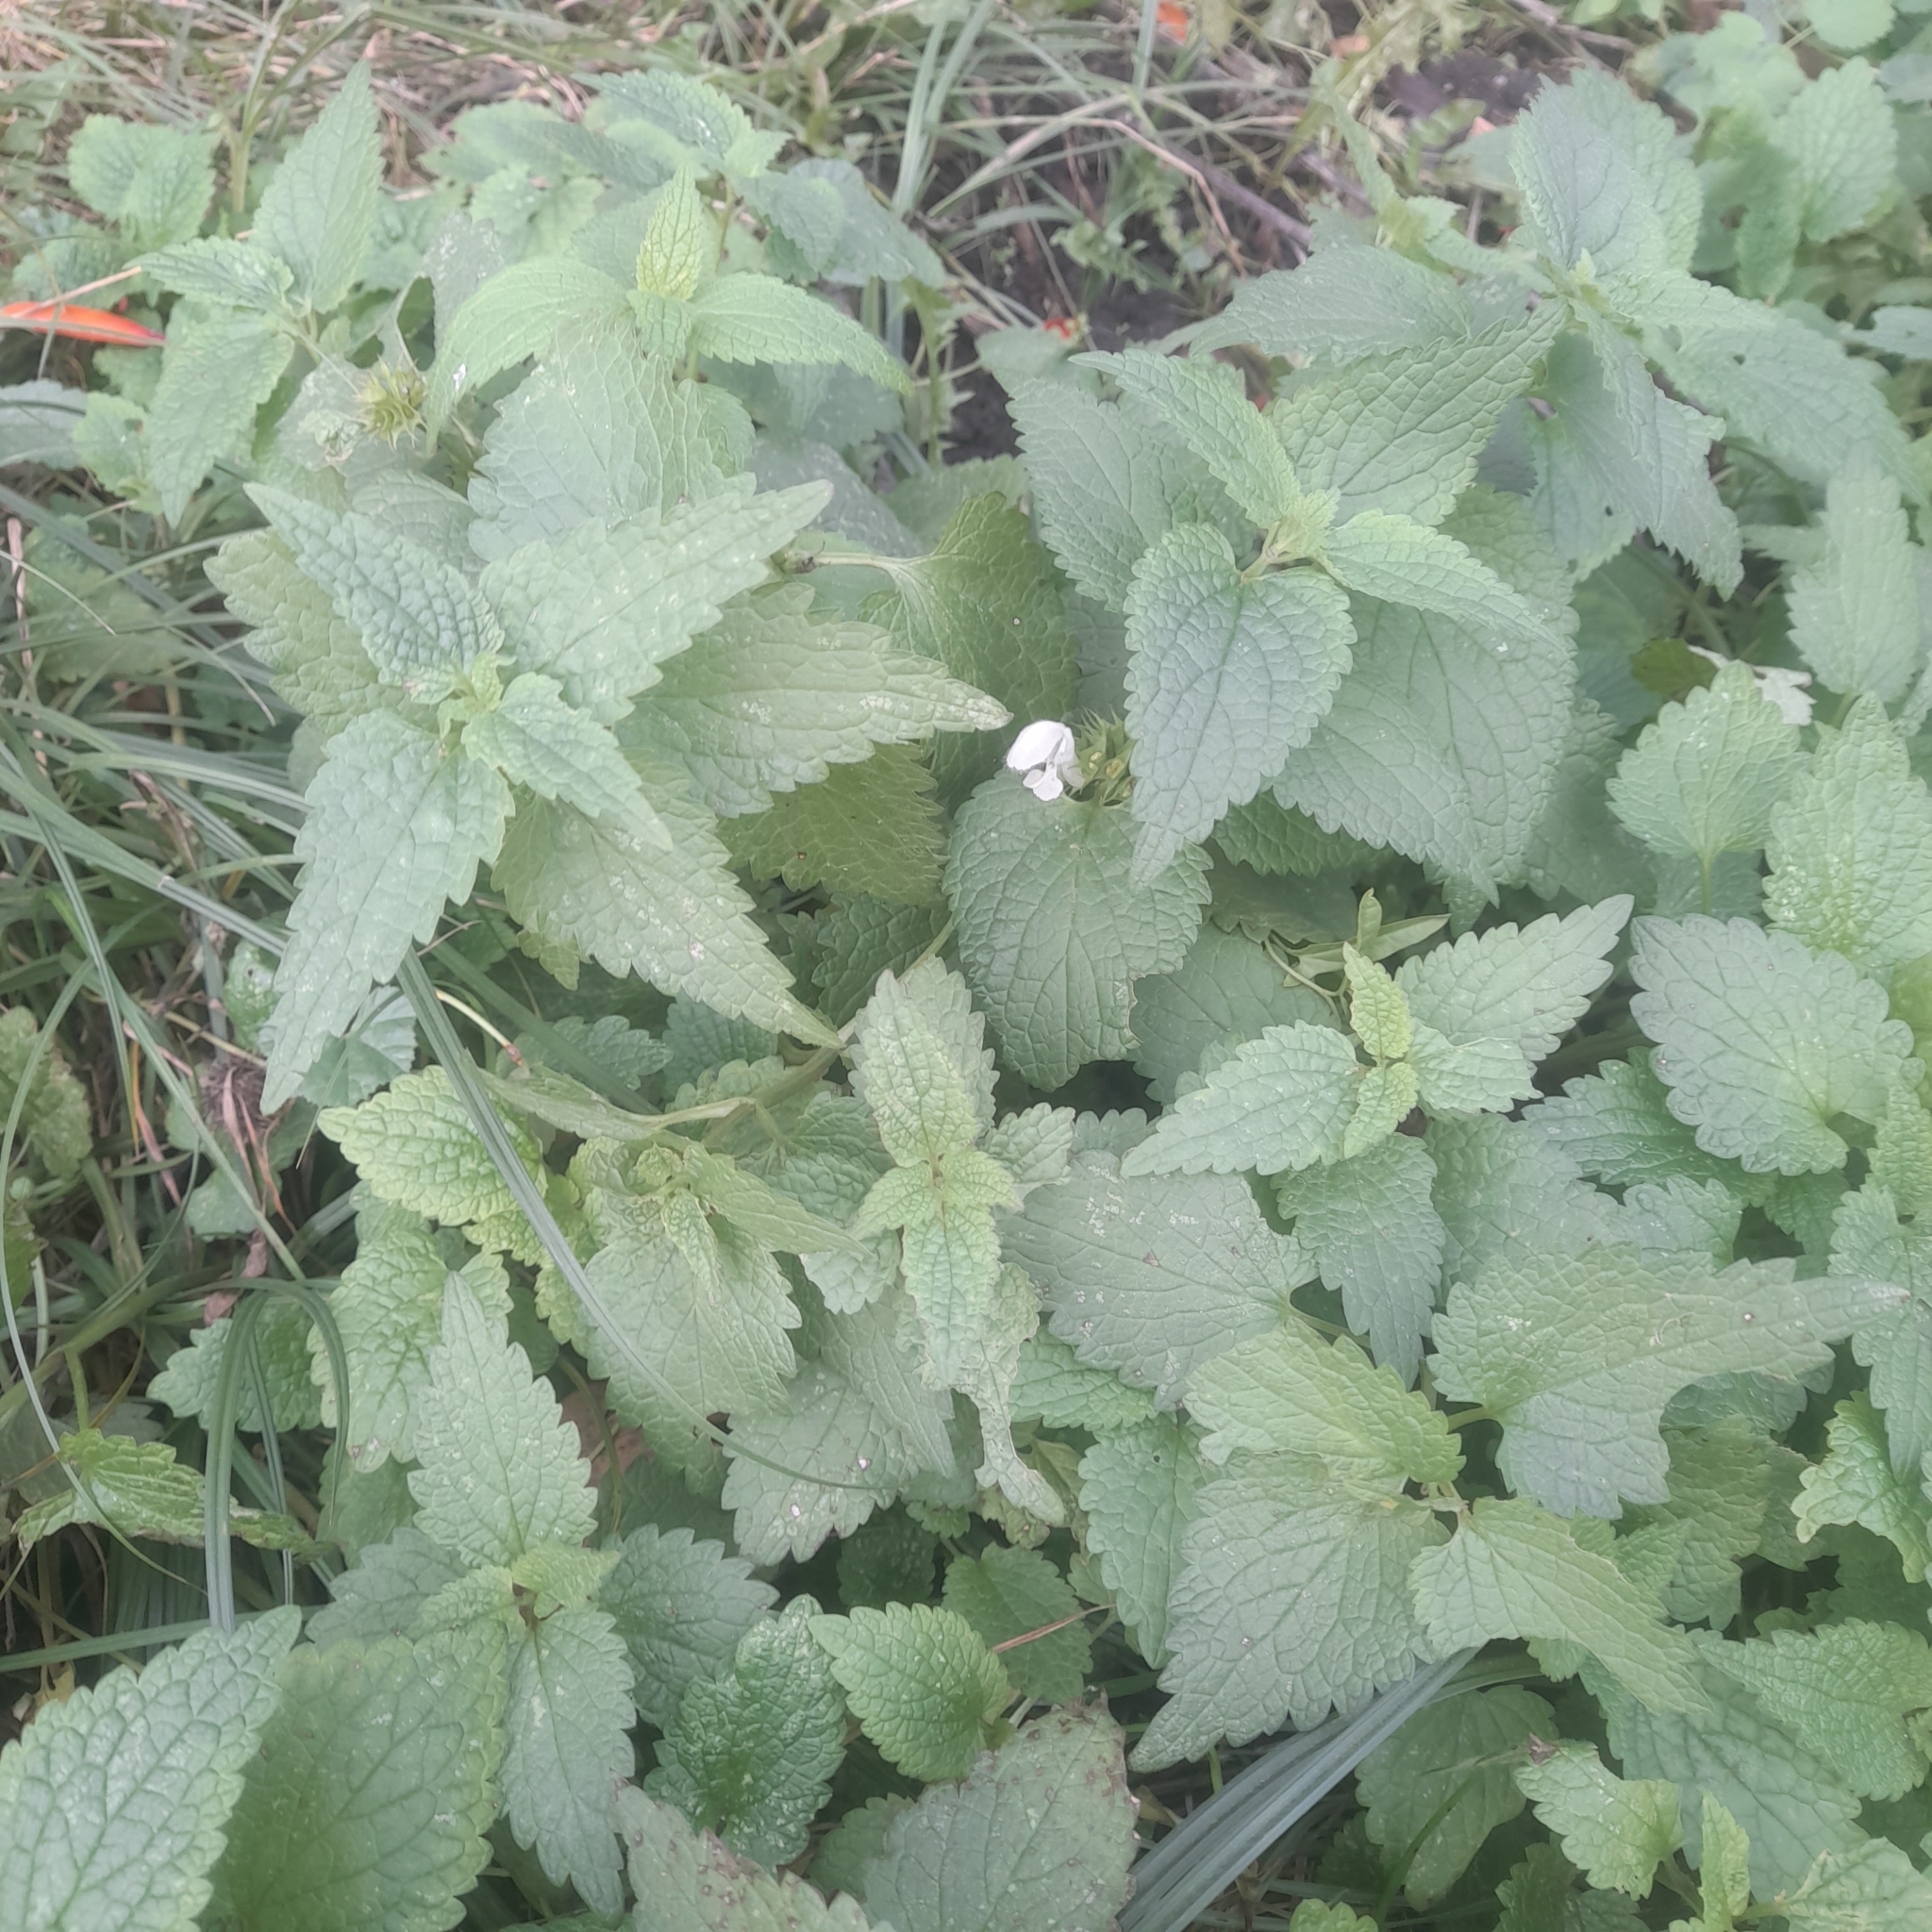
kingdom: Plantae
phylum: Tracheophyta
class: Magnoliopsida
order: Lamiales
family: Lamiaceae
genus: Lamium
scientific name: Lamium album
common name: White dead-nettle
